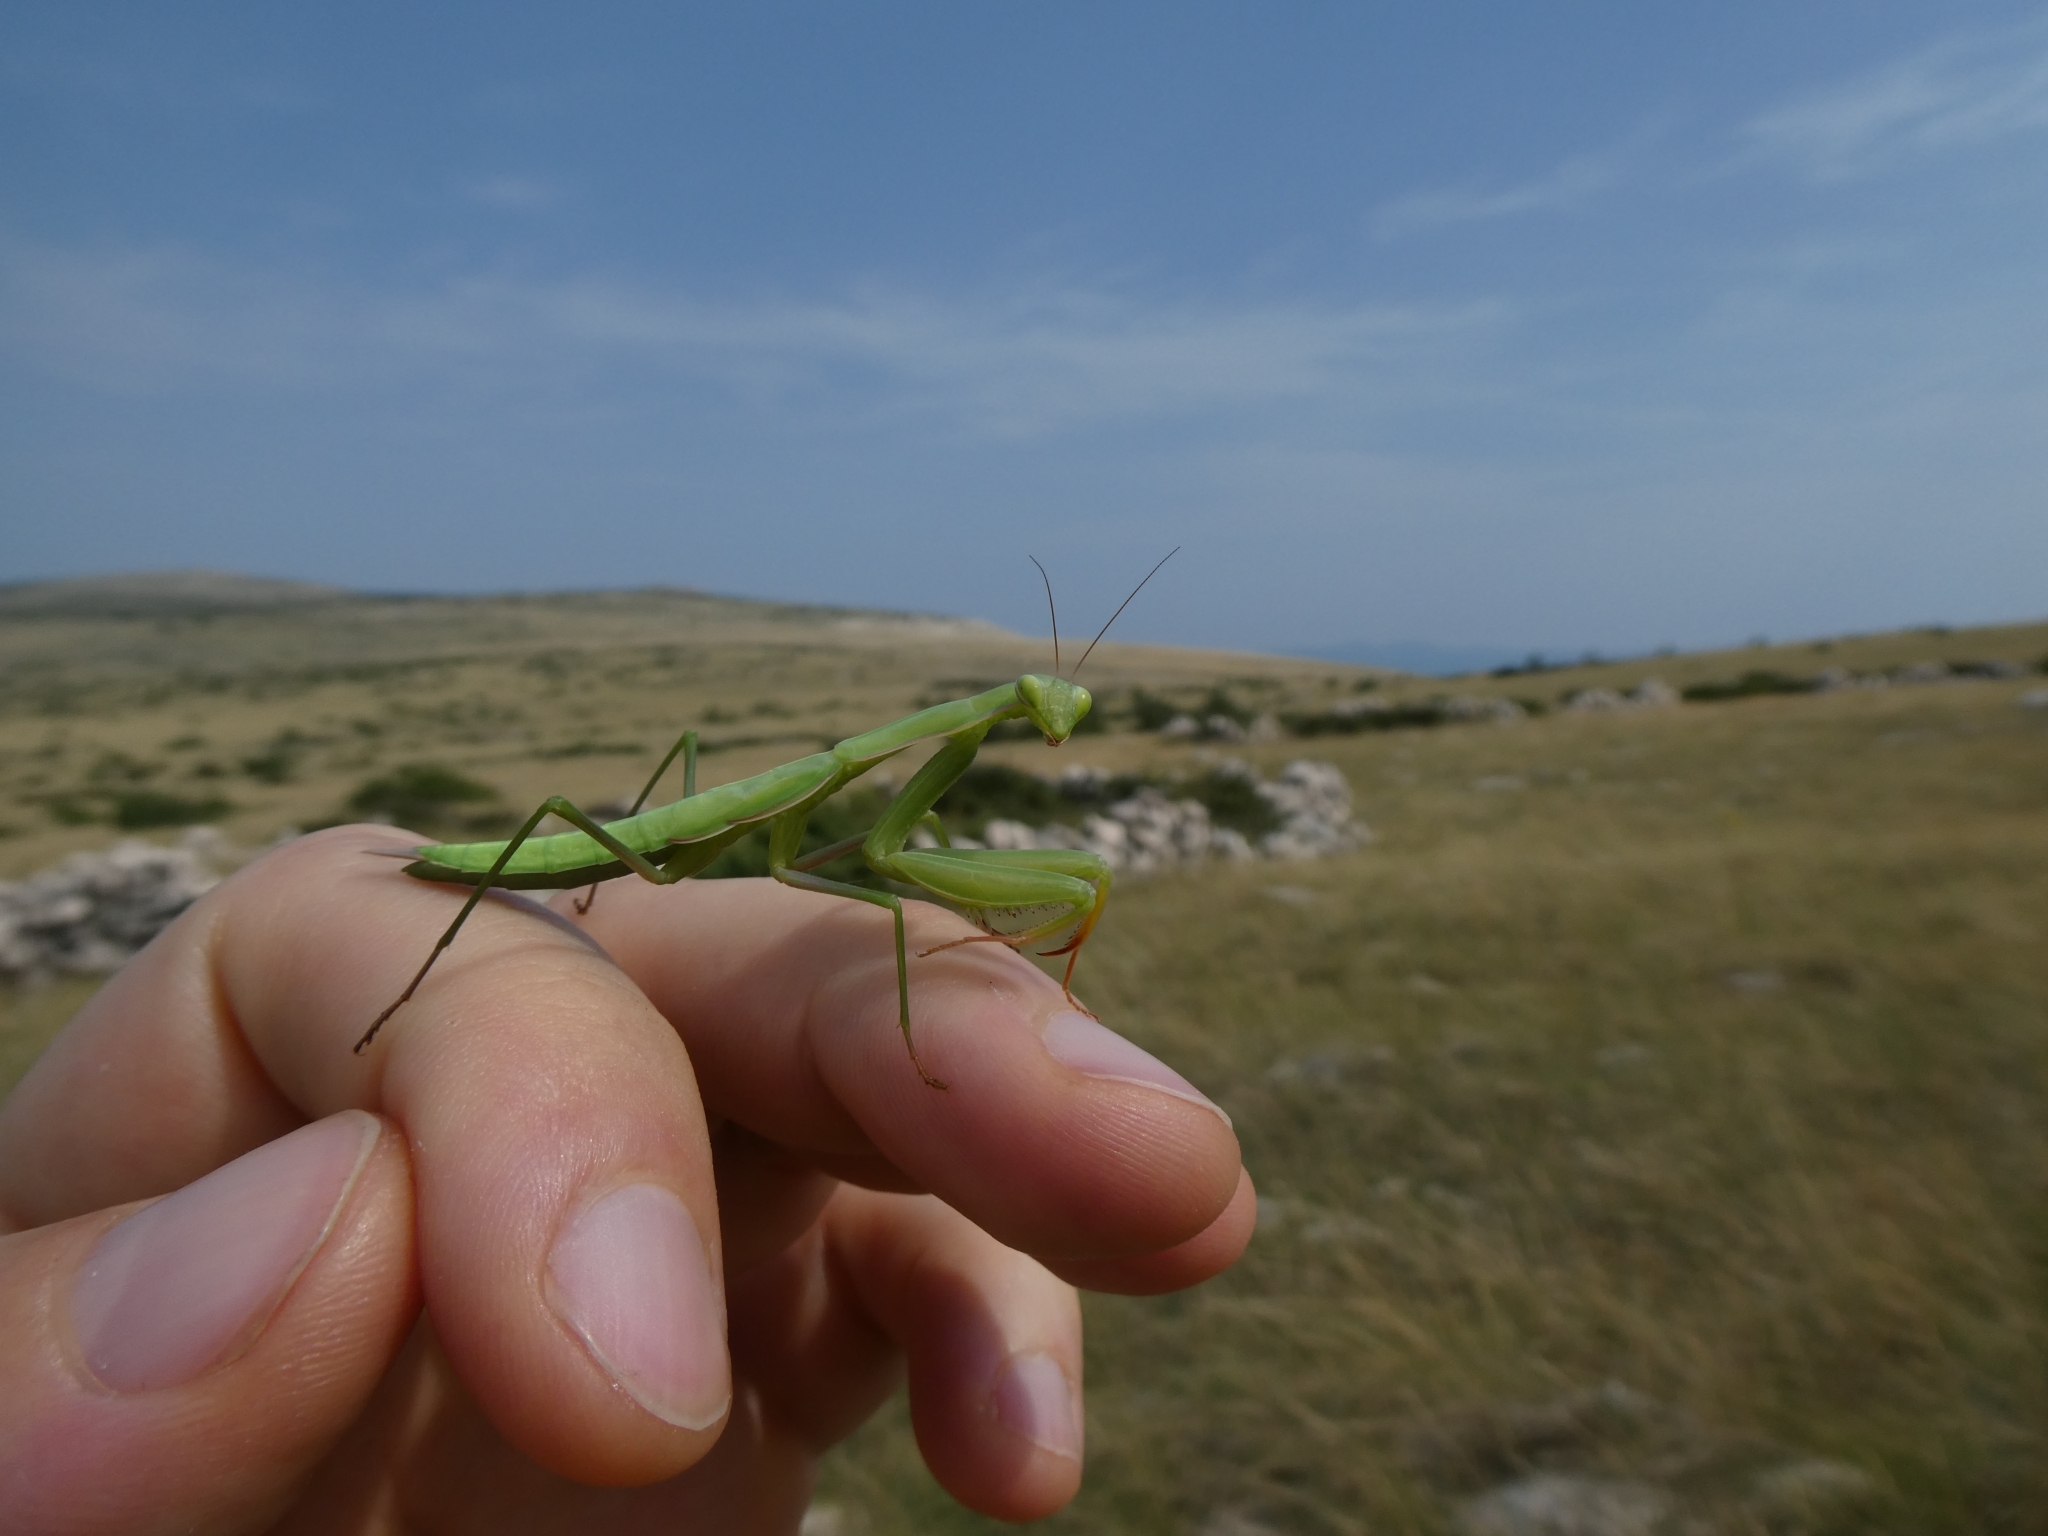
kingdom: Animalia
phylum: Arthropoda
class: Insecta
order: Mantodea
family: Mantidae
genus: Mantis
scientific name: Mantis religiosa
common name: Praying mantis
